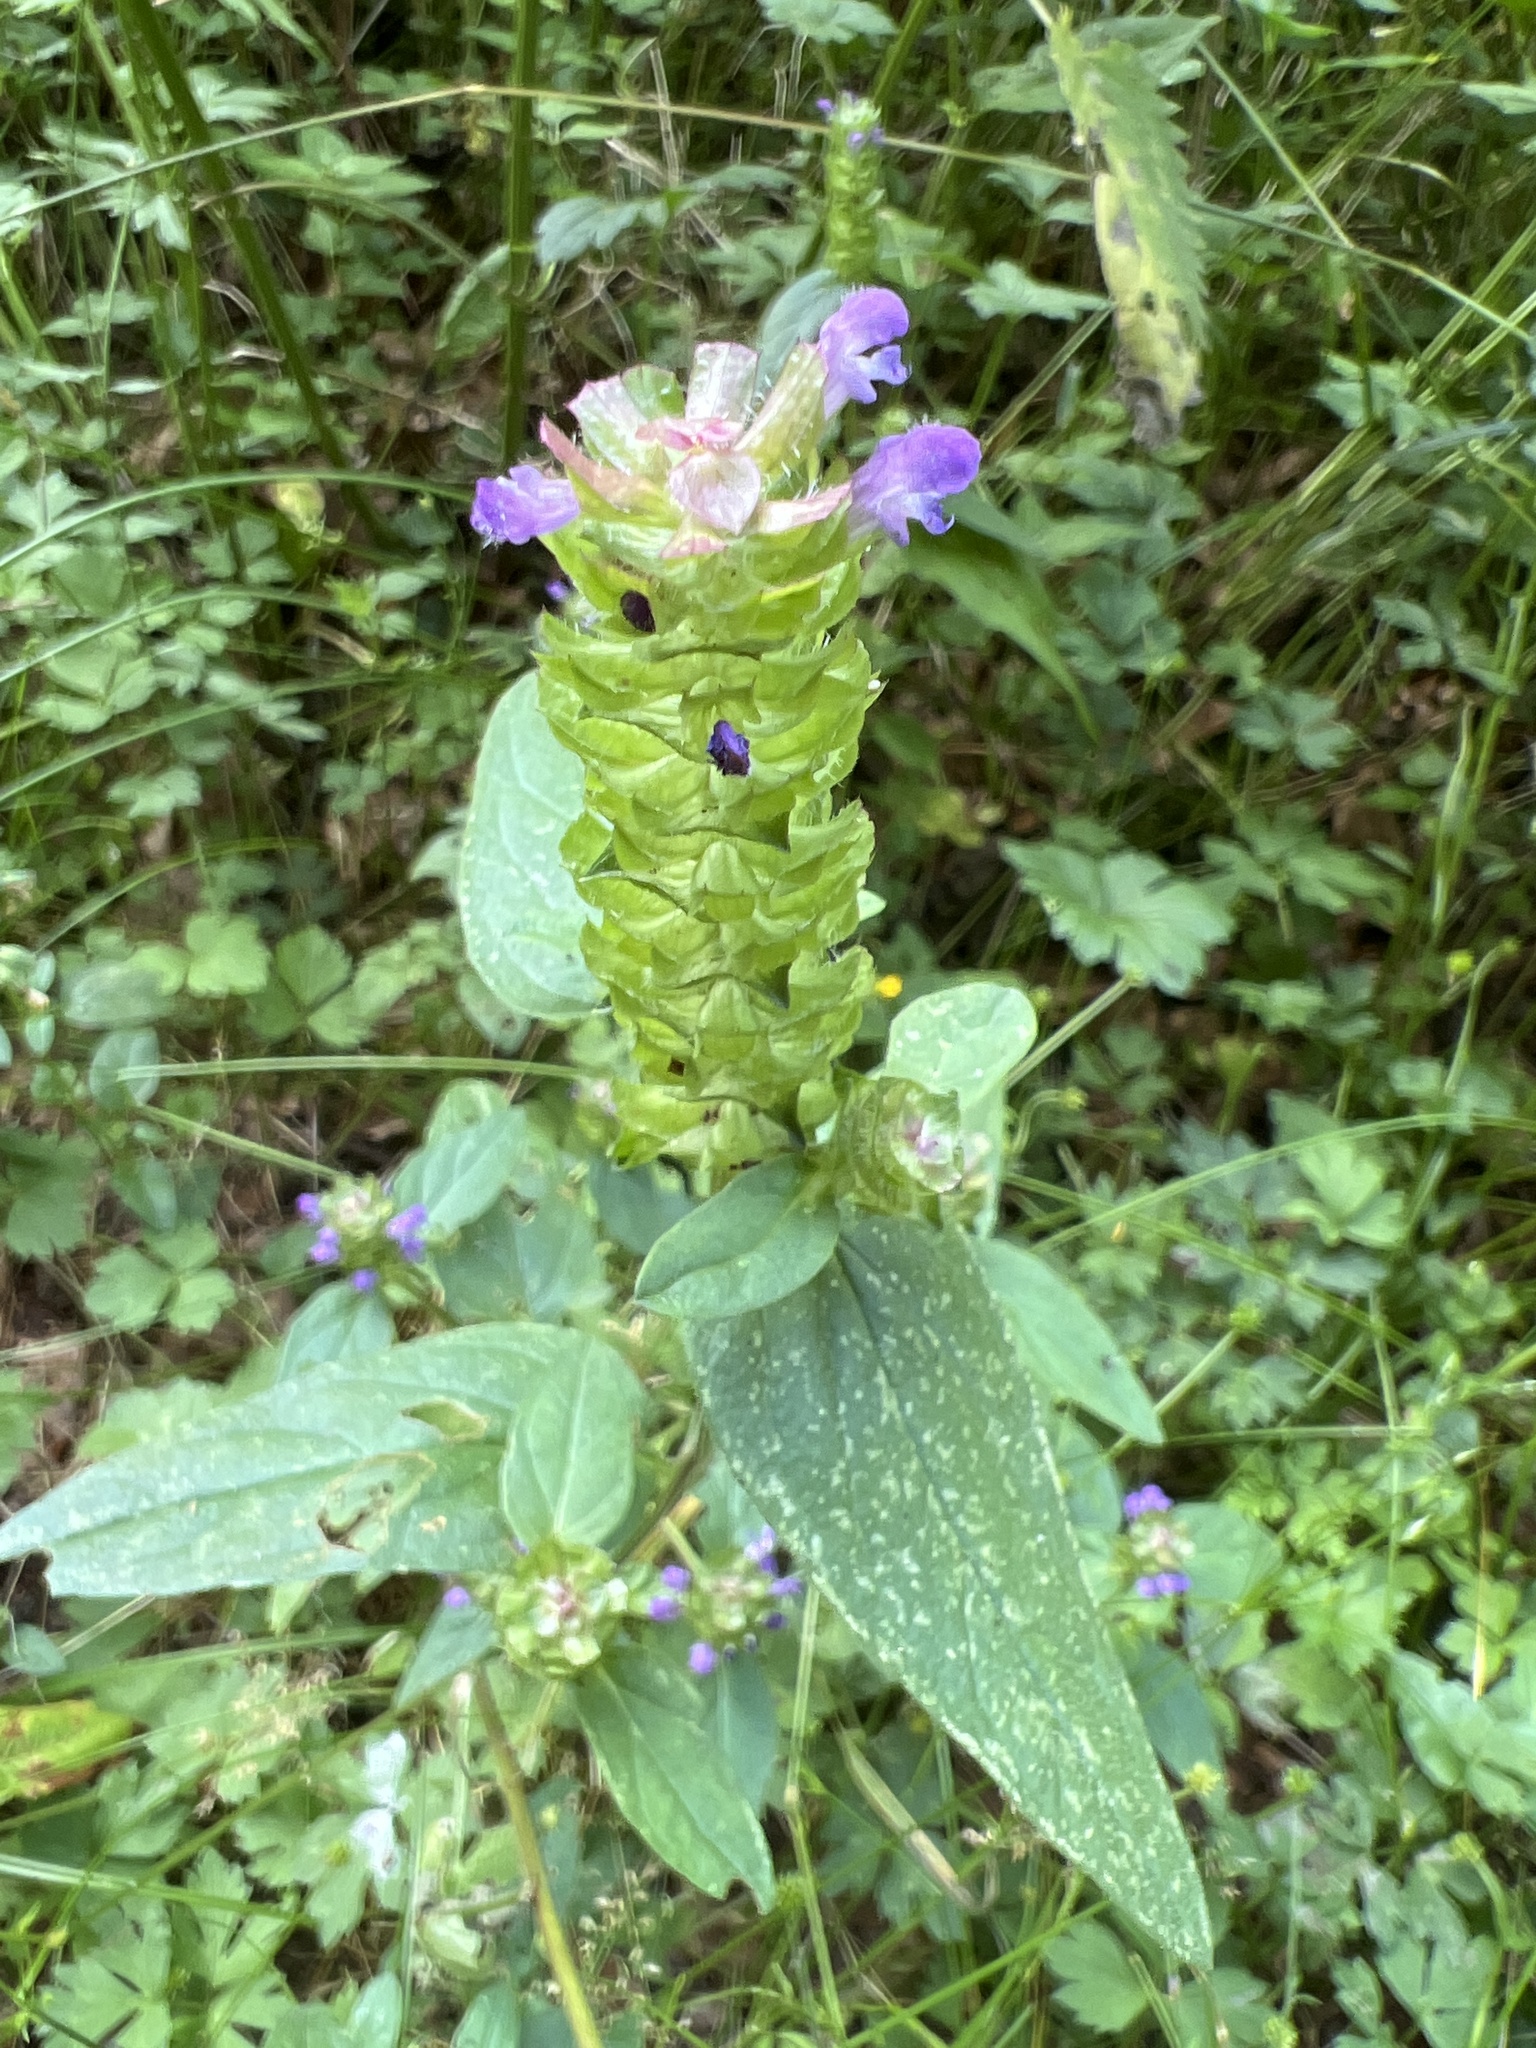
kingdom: Plantae
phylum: Tracheophyta
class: Magnoliopsida
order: Lamiales
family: Lamiaceae
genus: Prunella
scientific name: Prunella vulgaris
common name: Heal-all
